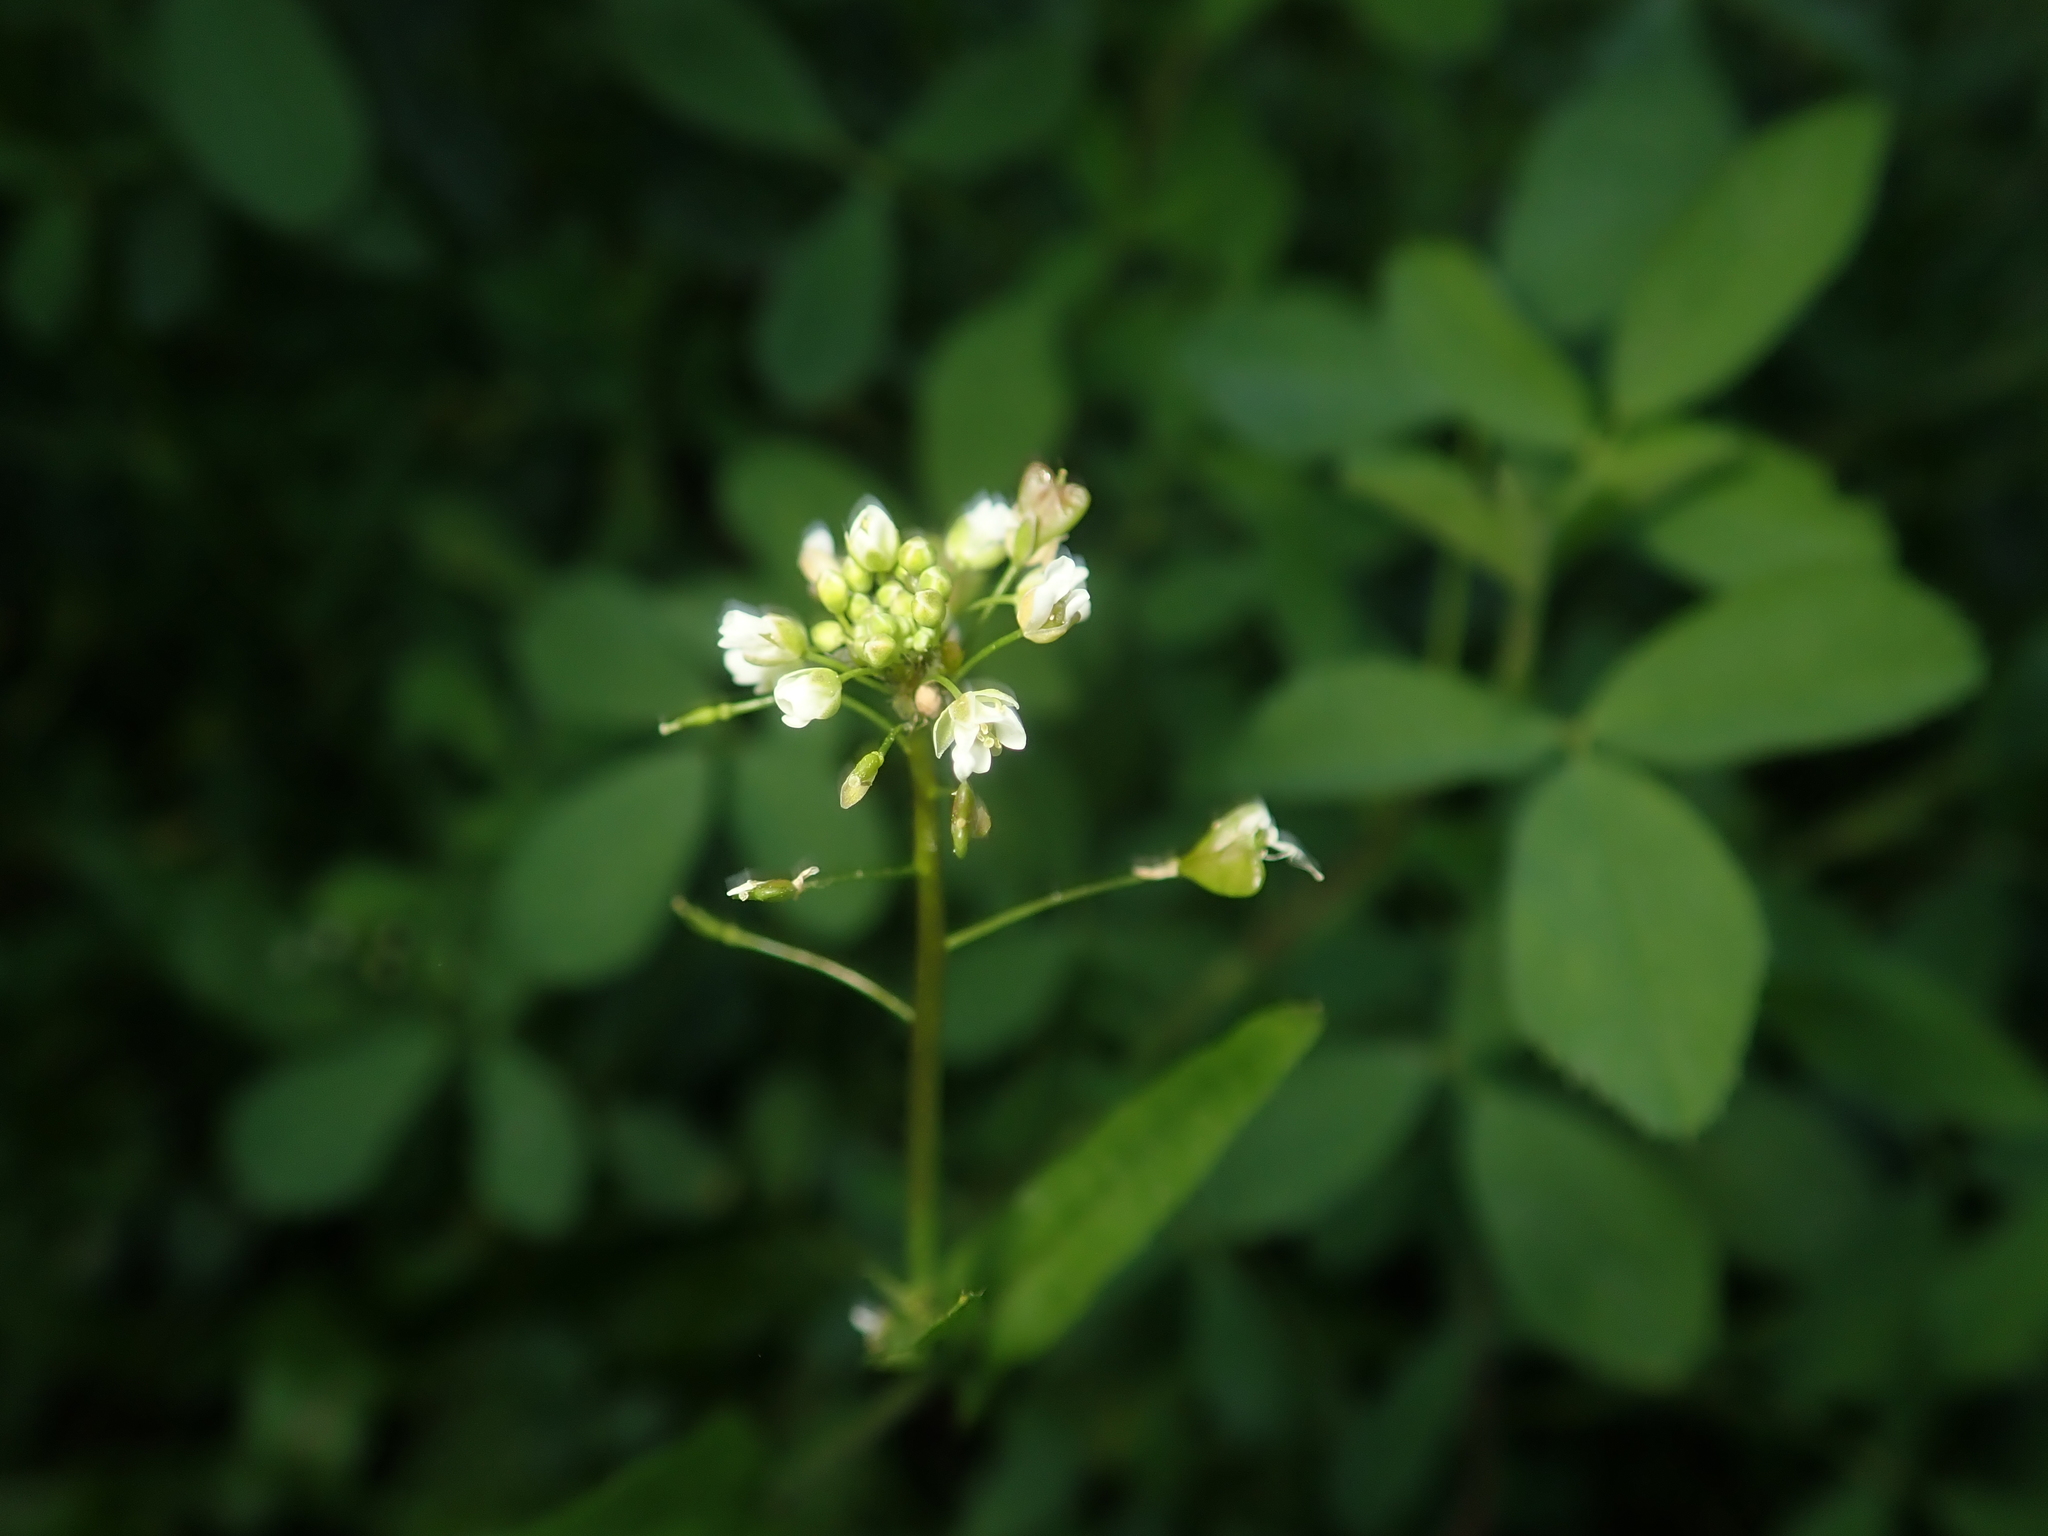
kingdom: Plantae
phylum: Tracheophyta
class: Magnoliopsida
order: Brassicales
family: Brassicaceae
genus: Capsella
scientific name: Capsella bursa-pastoris
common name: Shepherd's purse
